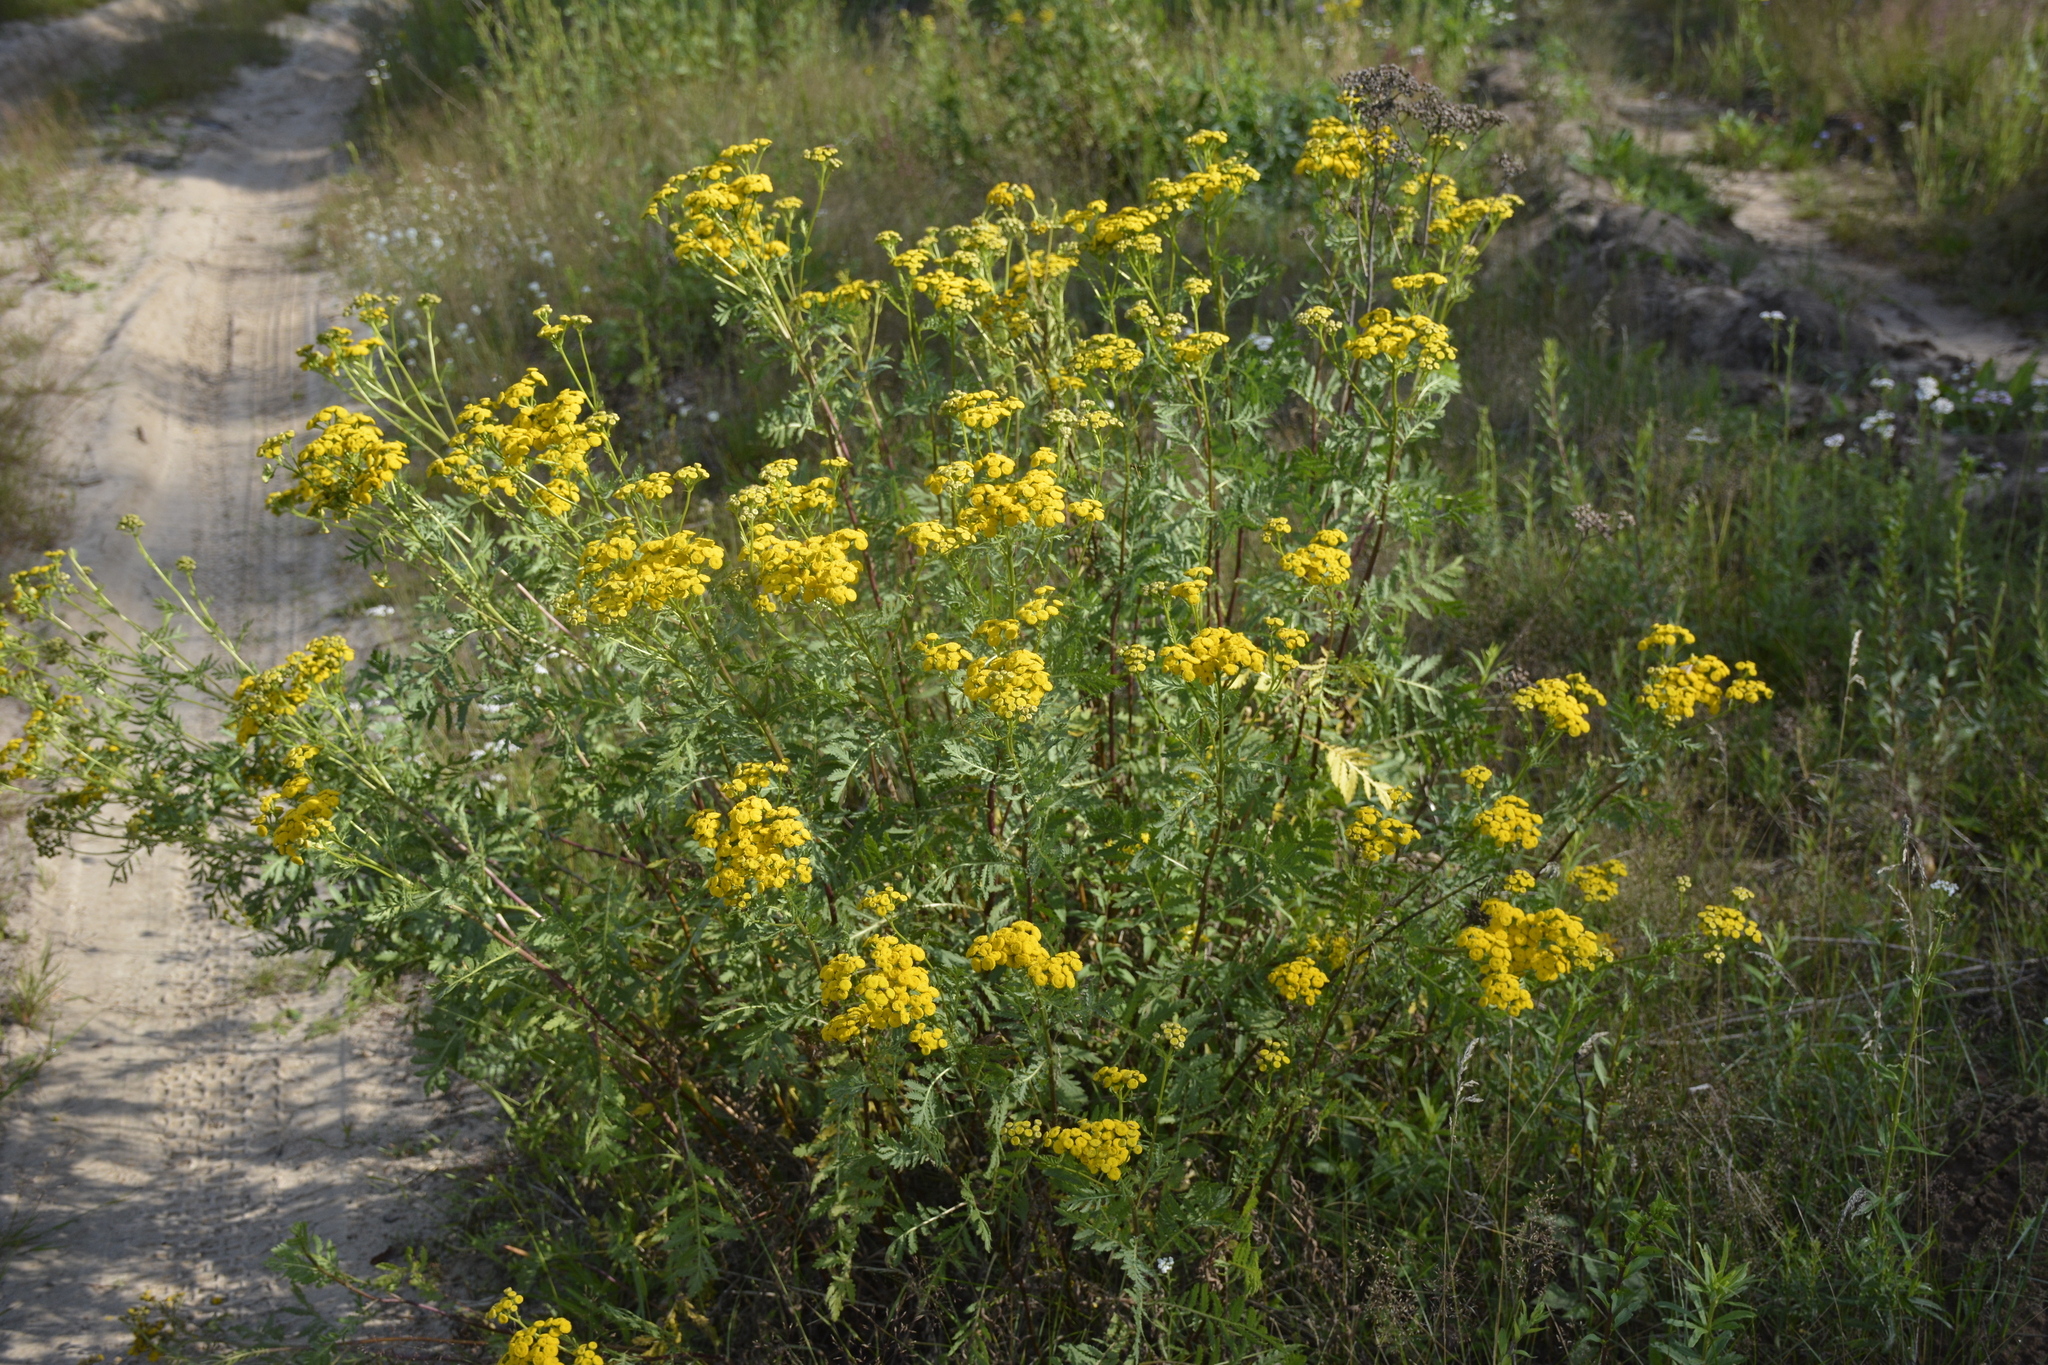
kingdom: Plantae
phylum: Tracheophyta
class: Magnoliopsida
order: Asterales
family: Asteraceae
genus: Tanacetum
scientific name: Tanacetum vulgare
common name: Common tansy
